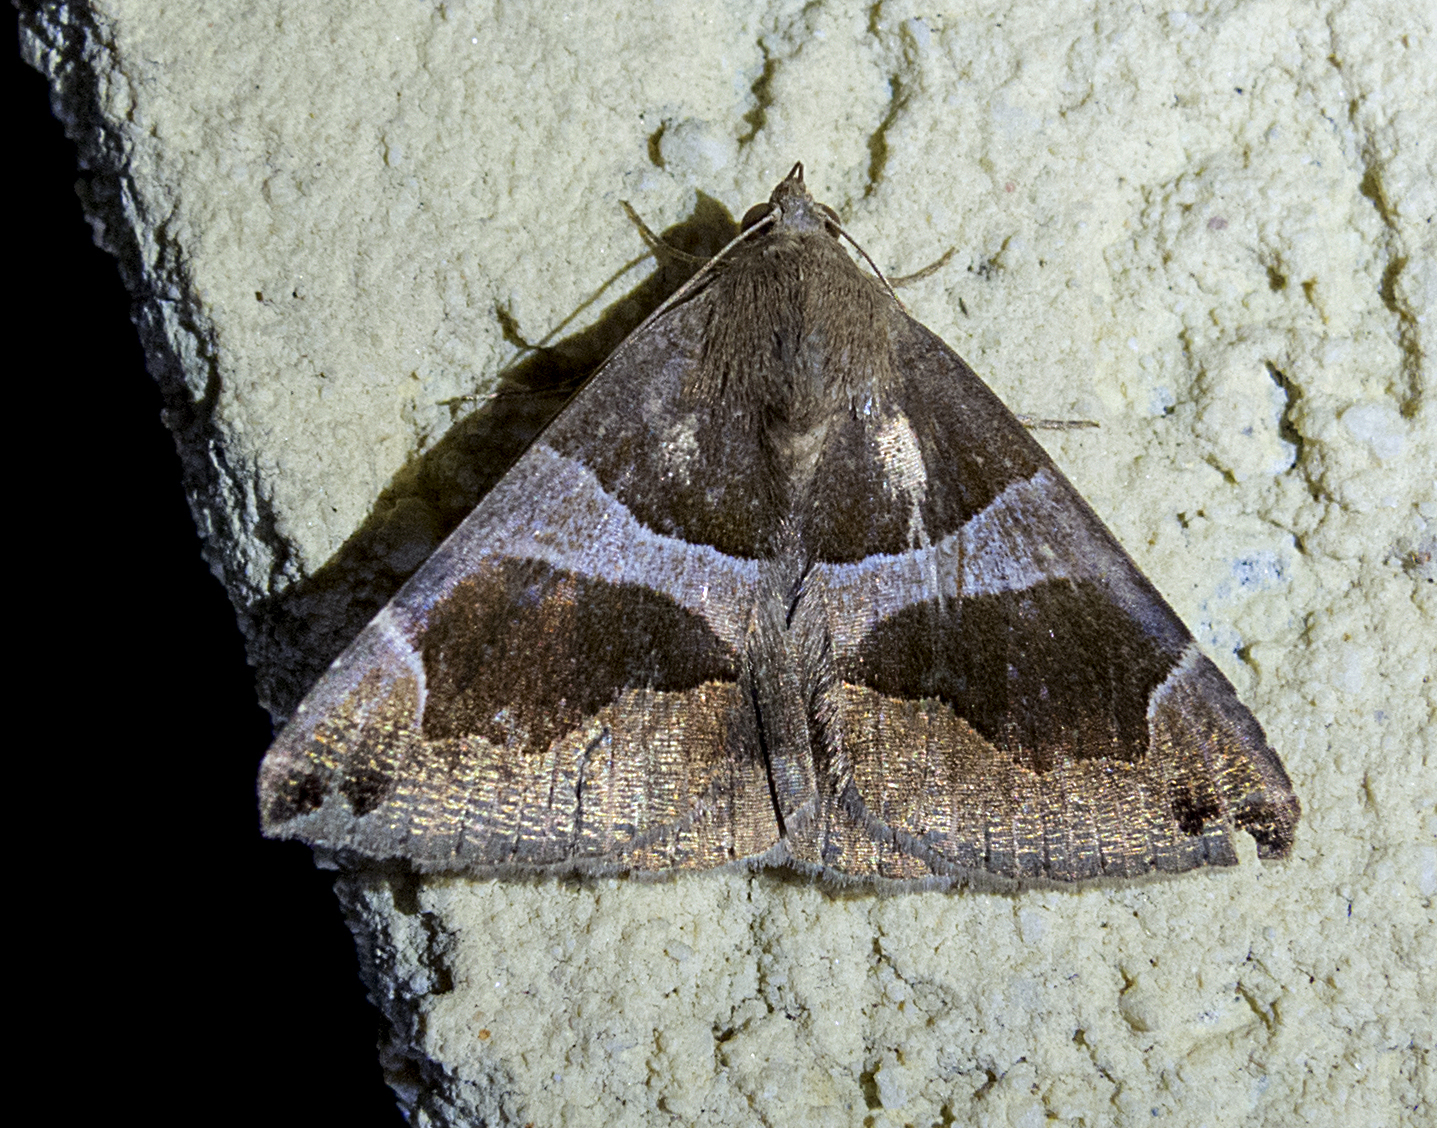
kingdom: Animalia
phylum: Arthropoda
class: Insecta
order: Lepidoptera
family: Erebidae
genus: Dysgonia
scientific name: Dysgonia algira
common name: Passenger
